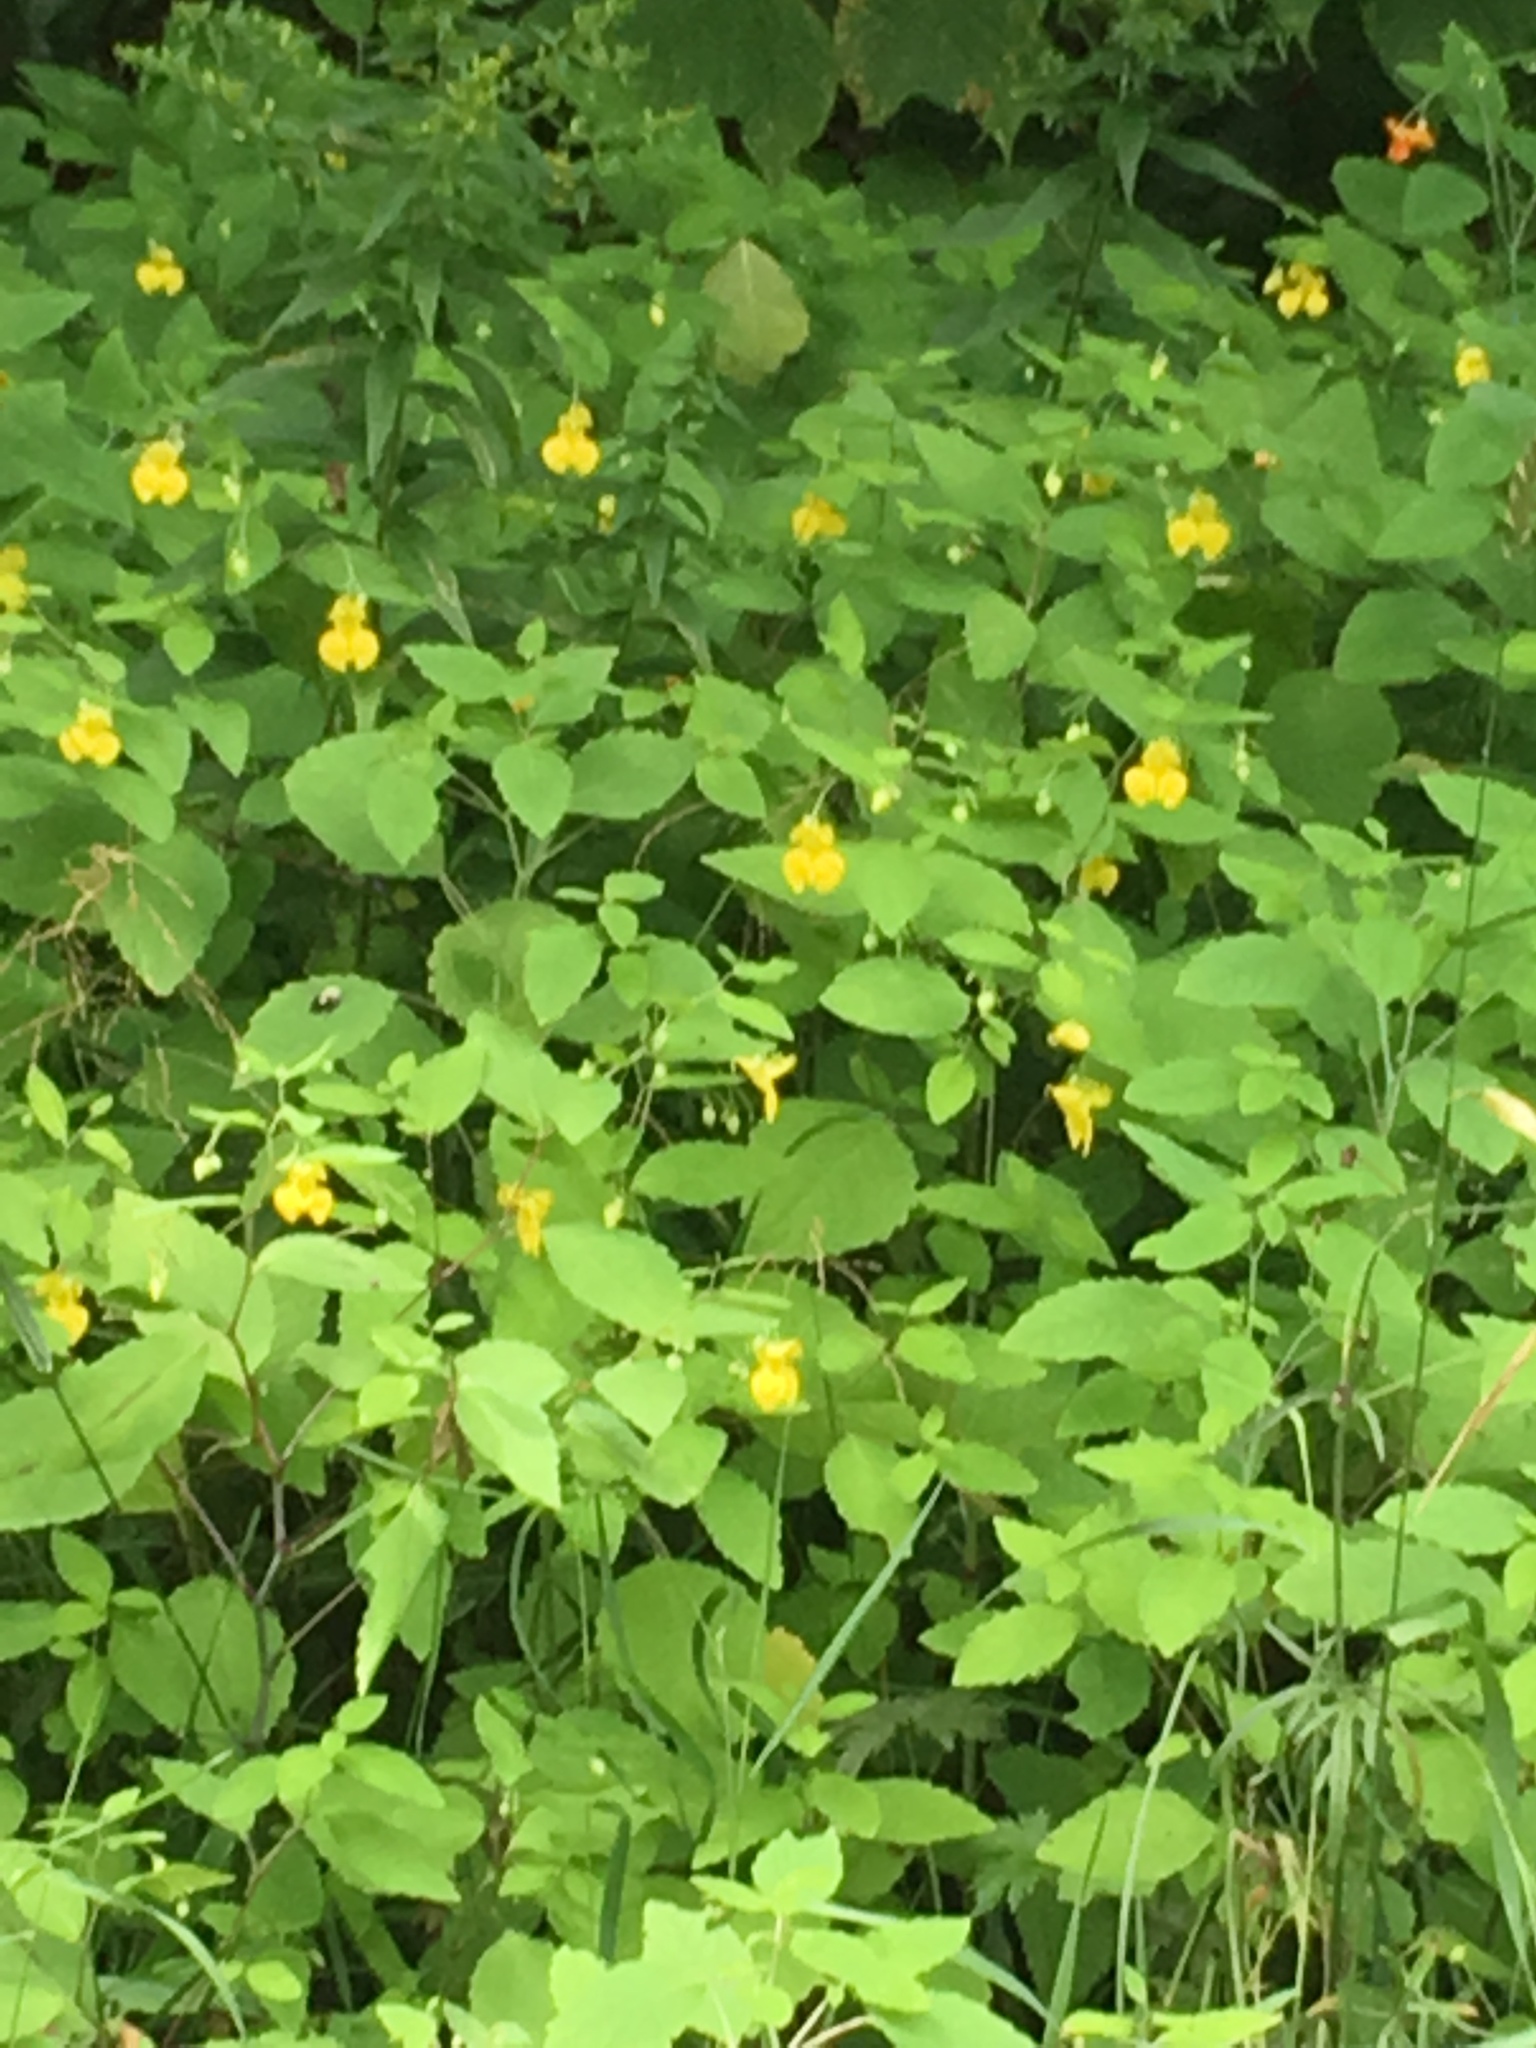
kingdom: Plantae
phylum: Tracheophyta
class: Magnoliopsida
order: Ericales
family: Balsaminaceae
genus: Impatiens
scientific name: Impatiens pallida
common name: Pale snapweed
